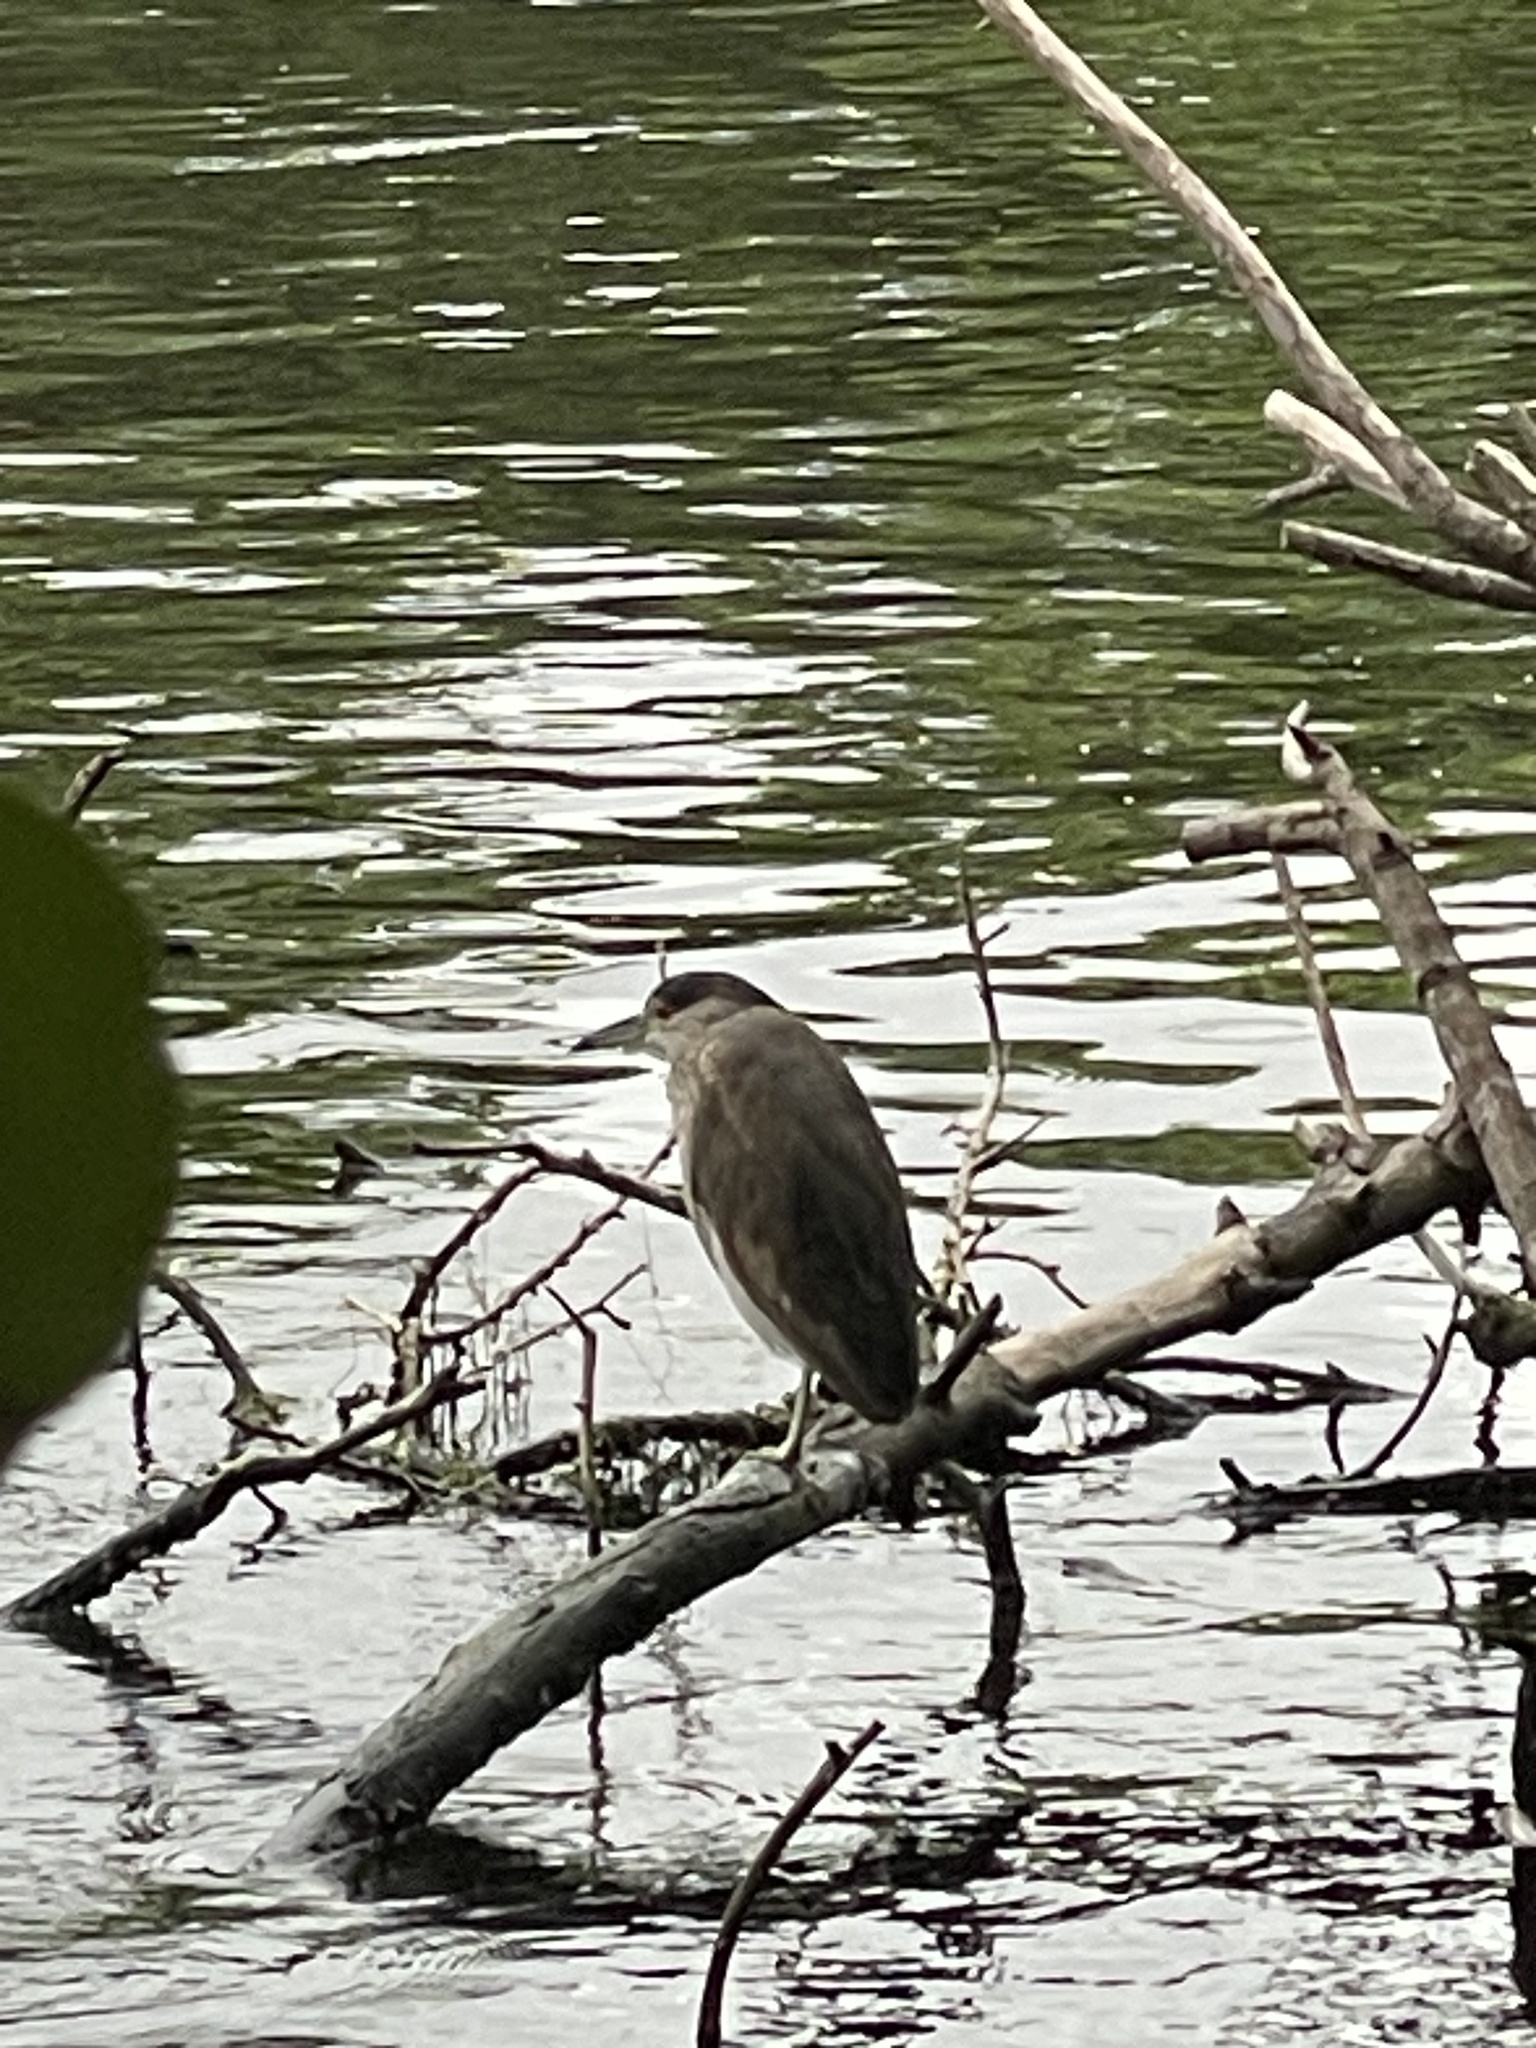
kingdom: Animalia
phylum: Chordata
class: Aves
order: Pelecaniformes
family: Ardeidae
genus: Nycticorax
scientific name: Nycticorax nycticorax
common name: Black-crowned night heron
